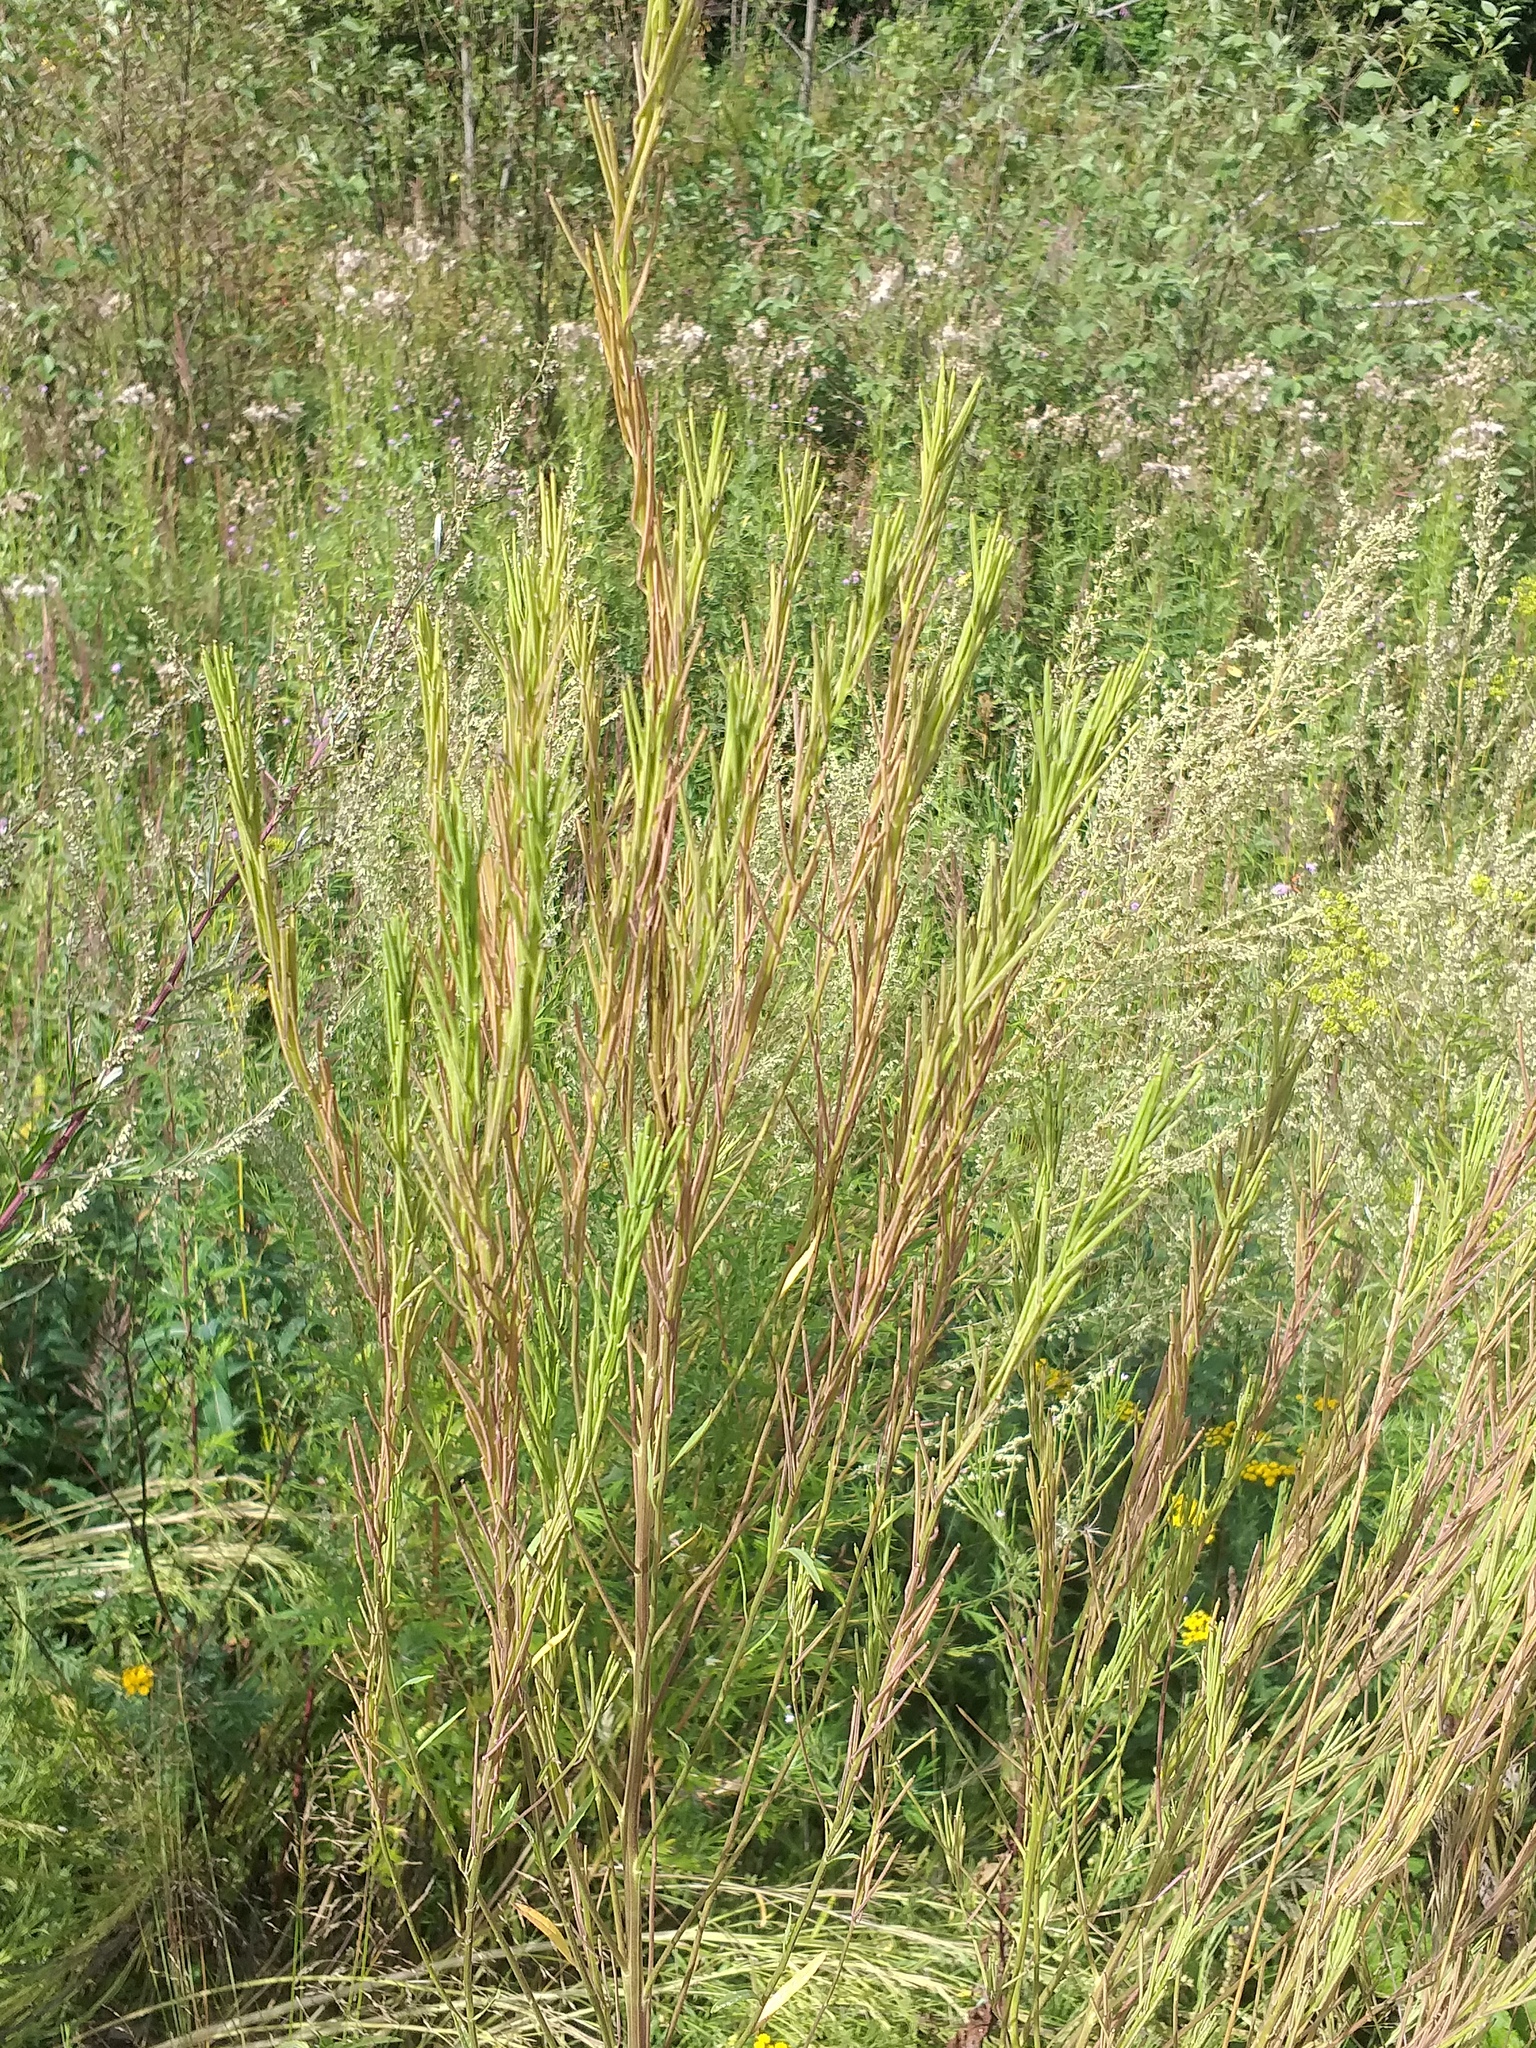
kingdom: Plantae
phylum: Tracheophyta
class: Magnoliopsida
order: Brassicales
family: Brassicaceae
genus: Erysimum
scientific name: Erysimum hieraciifolium
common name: European wallflower
